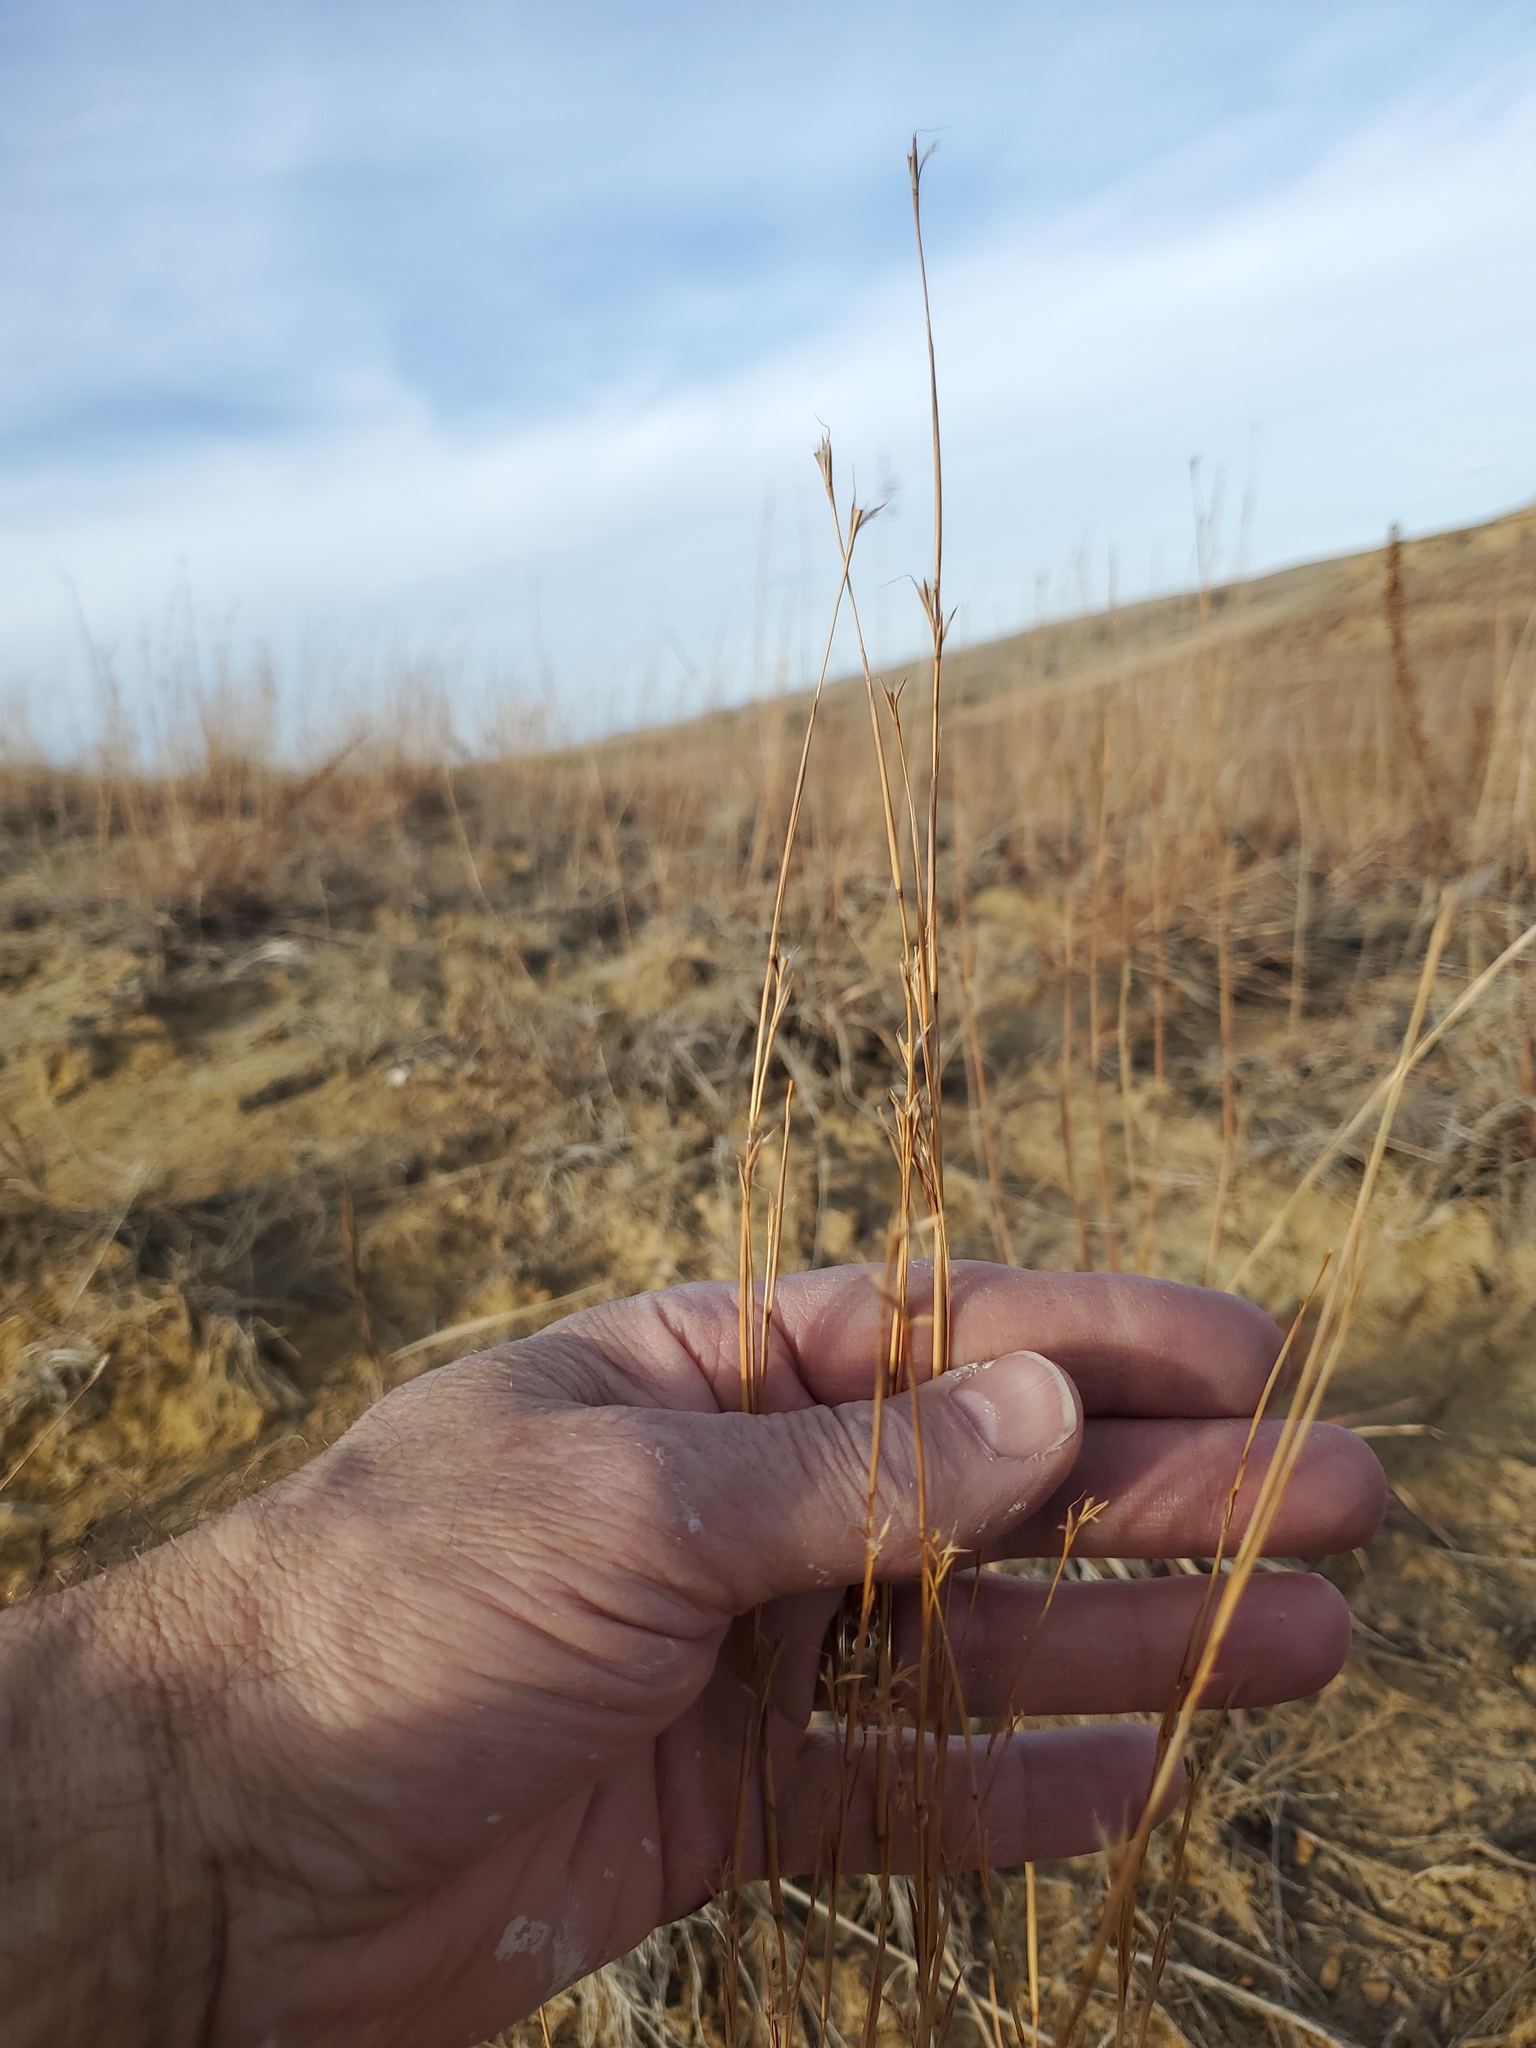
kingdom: Plantae
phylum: Tracheophyta
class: Liliopsida
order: Poales
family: Poaceae
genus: Schizachyrium
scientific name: Schizachyrium scoparium
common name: Little bluestem
